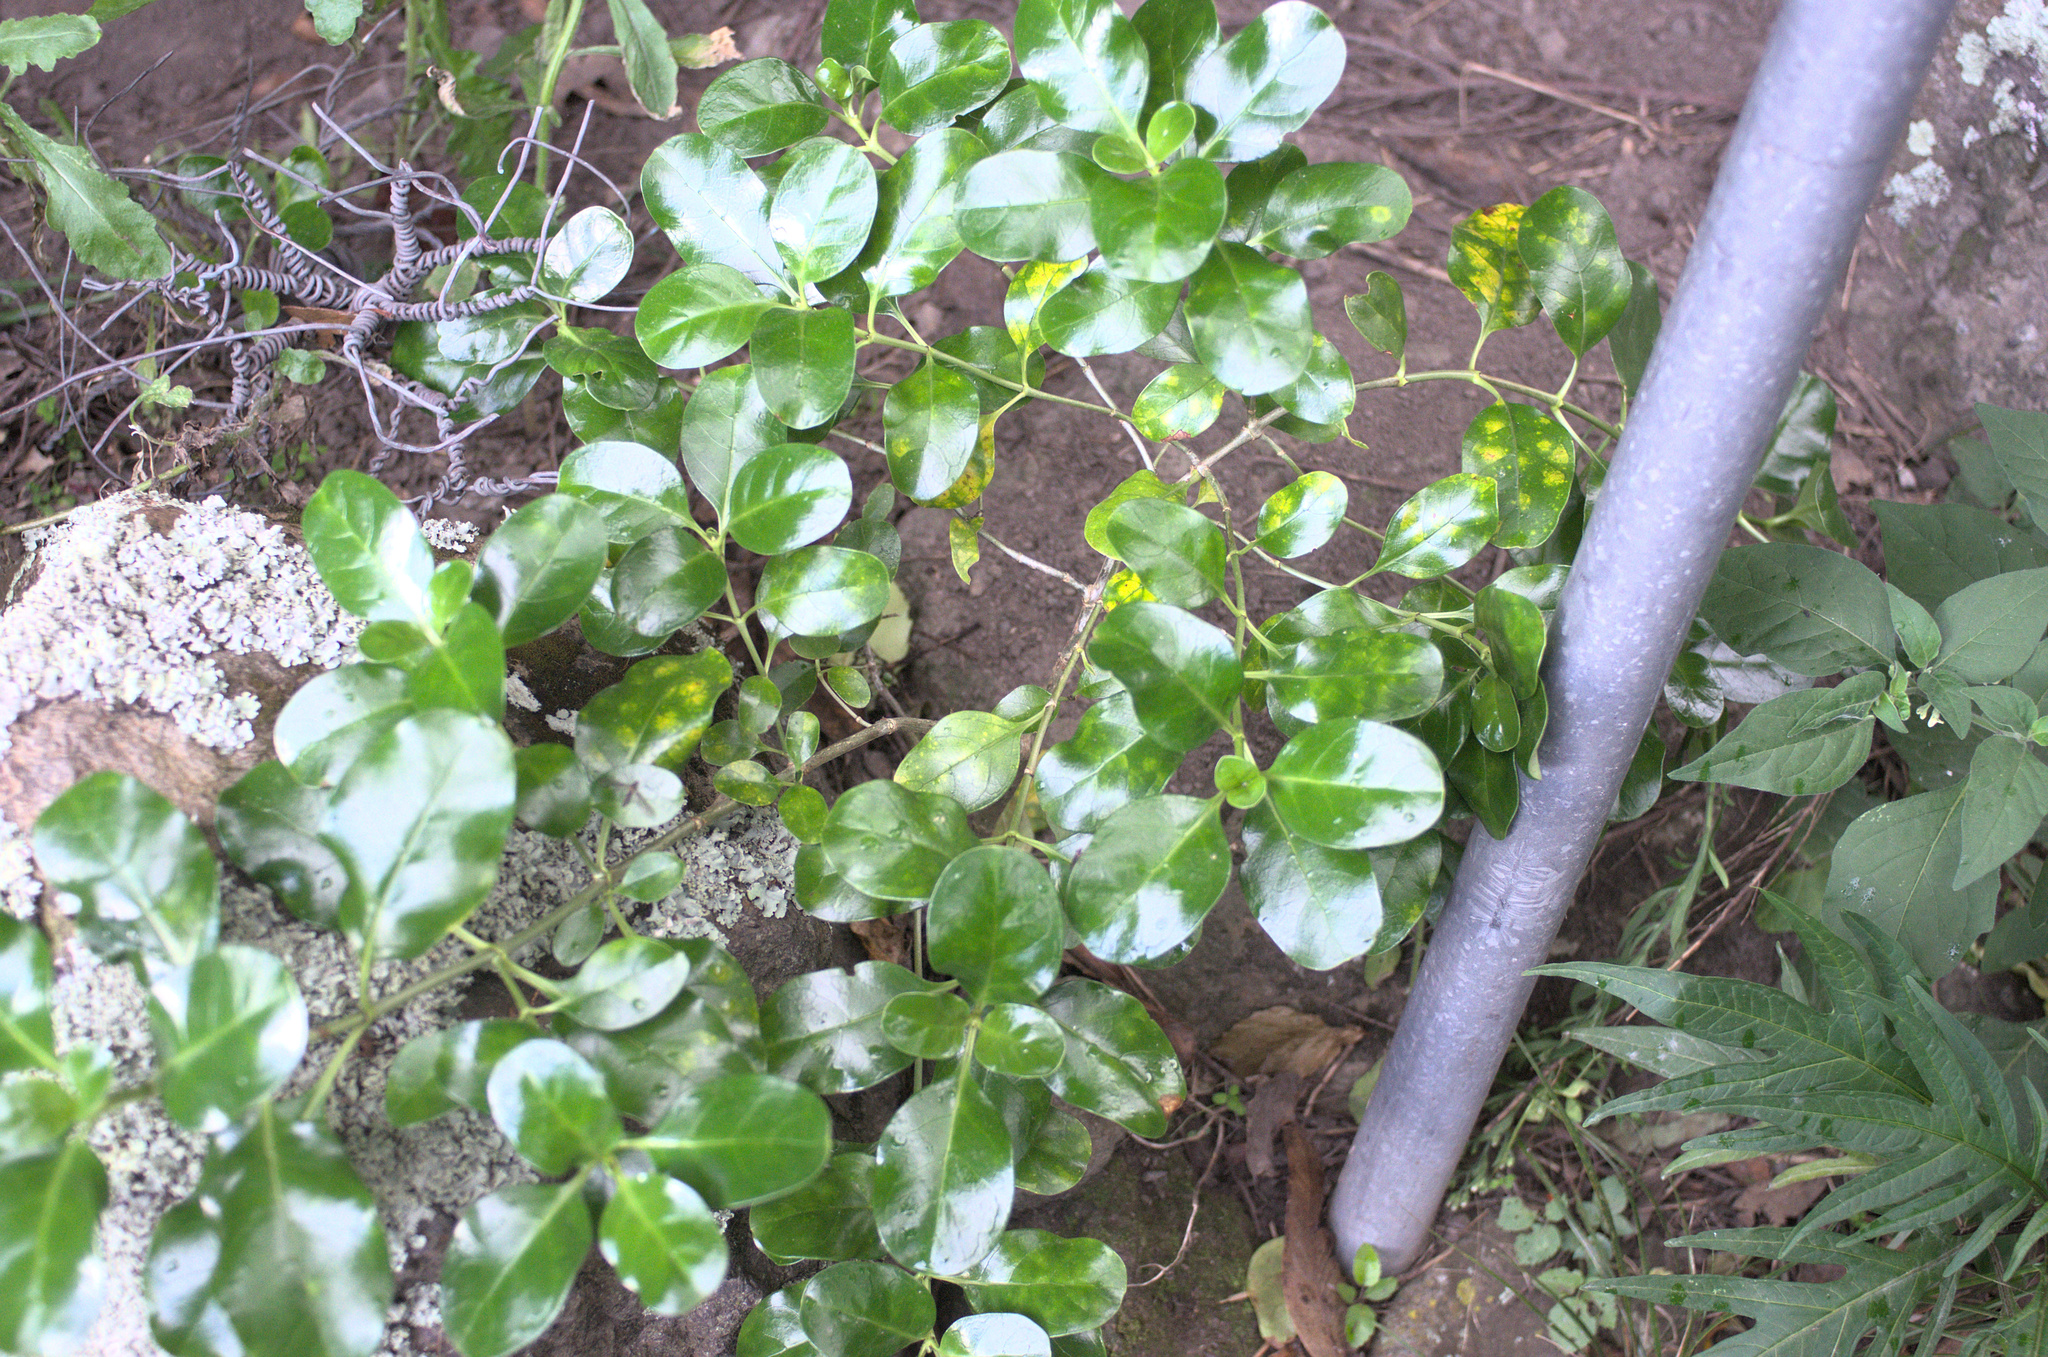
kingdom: Plantae
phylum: Tracheophyta
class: Magnoliopsida
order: Gentianales
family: Rubiaceae
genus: Coprosma
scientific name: Coprosma repens
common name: Tree bedstraw
